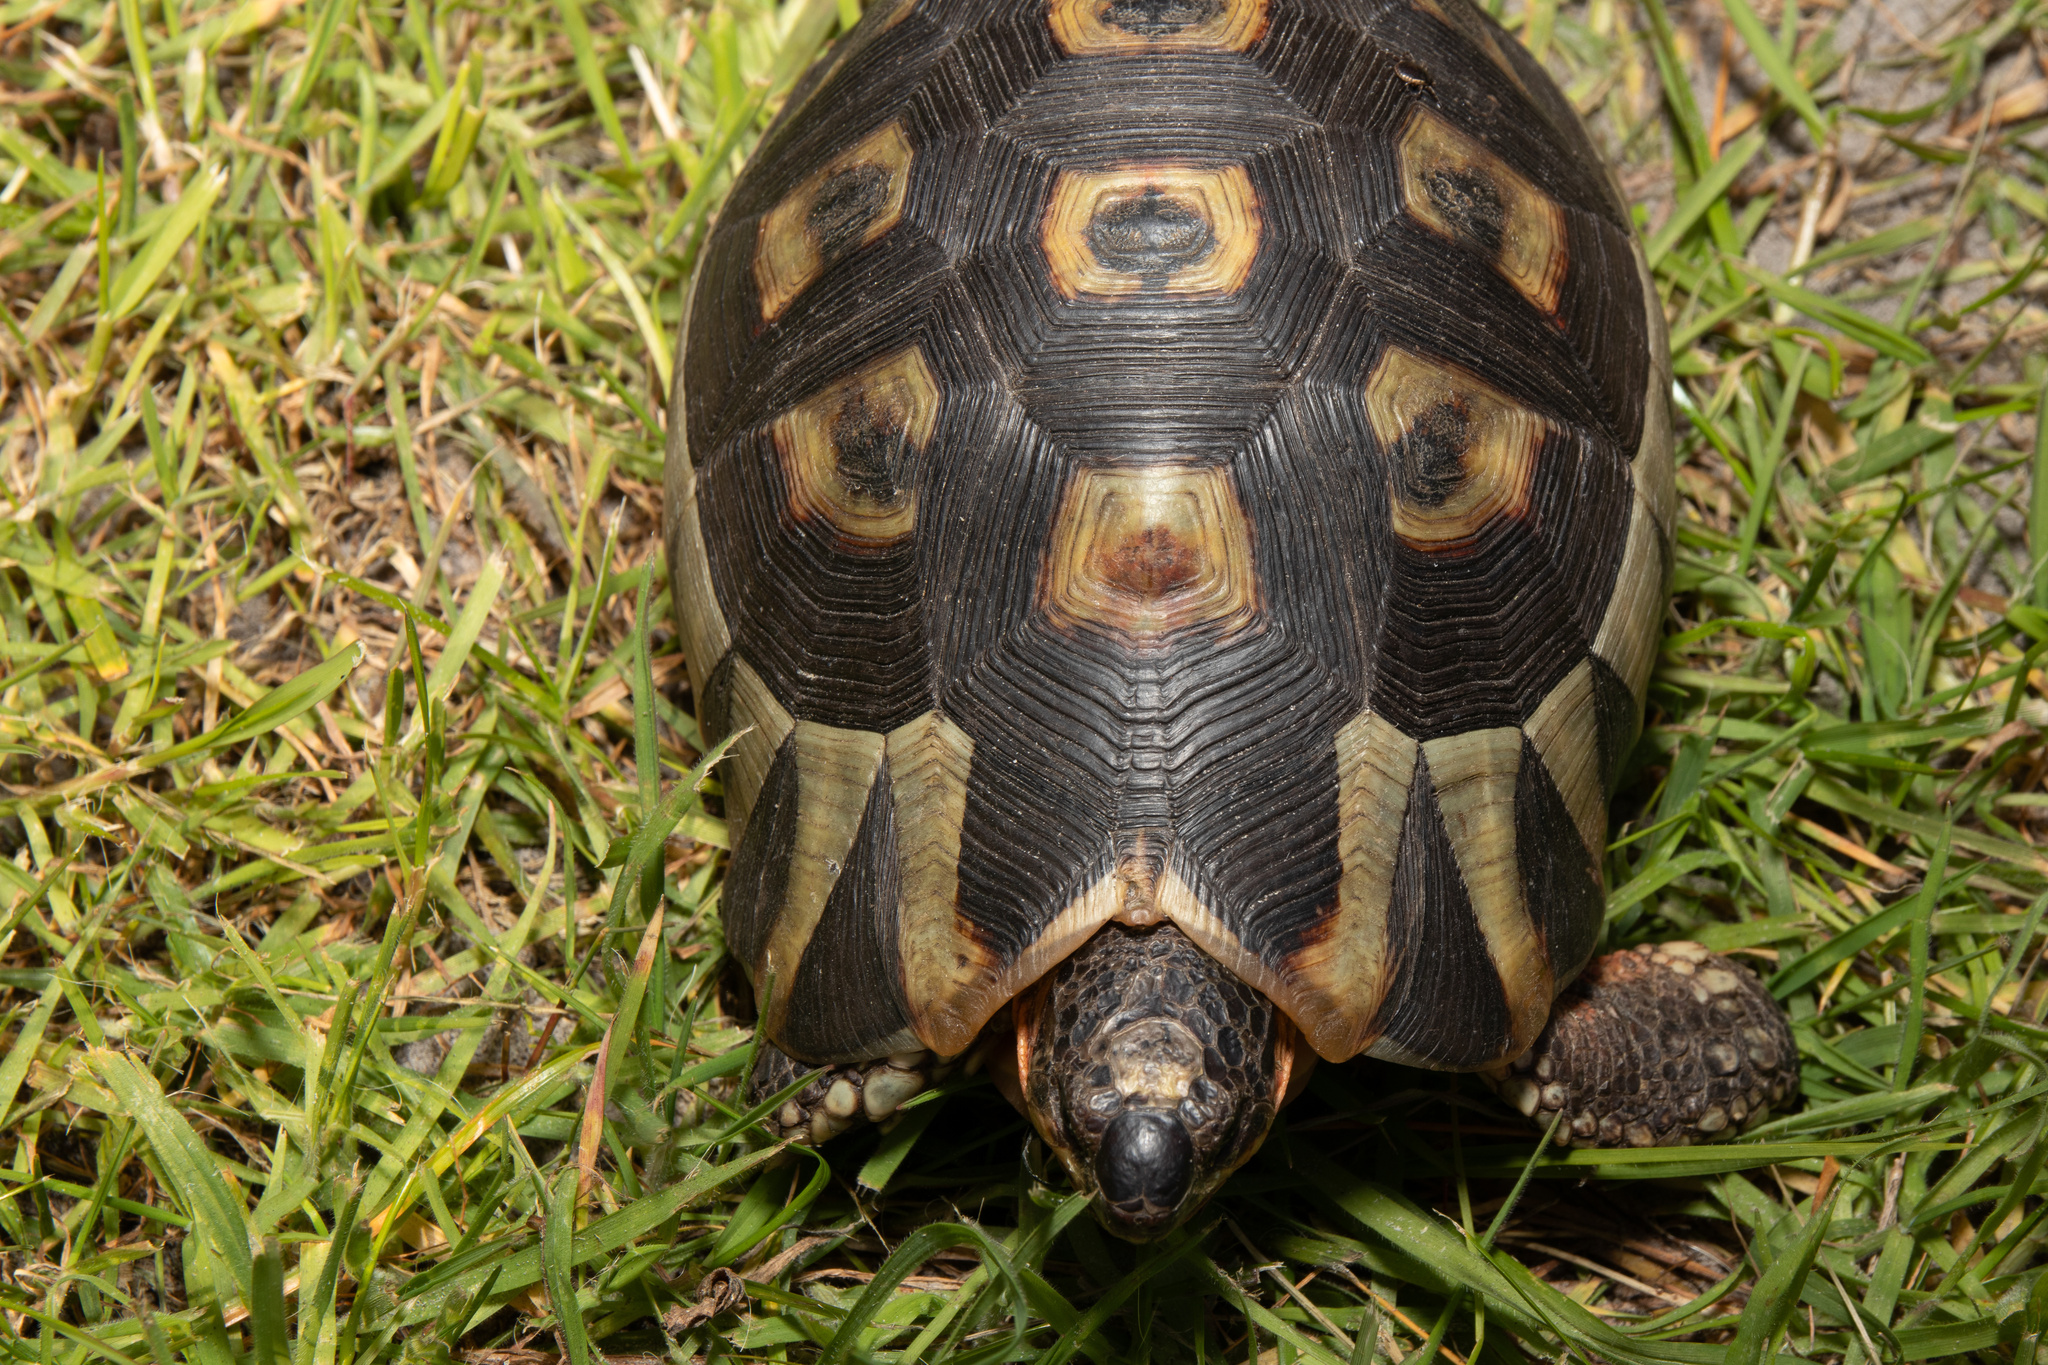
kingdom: Animalia
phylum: Chordata
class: Testudines
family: Testudinidae
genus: Chersina
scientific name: Chersina angulata
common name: South african bowsprit tortoise
